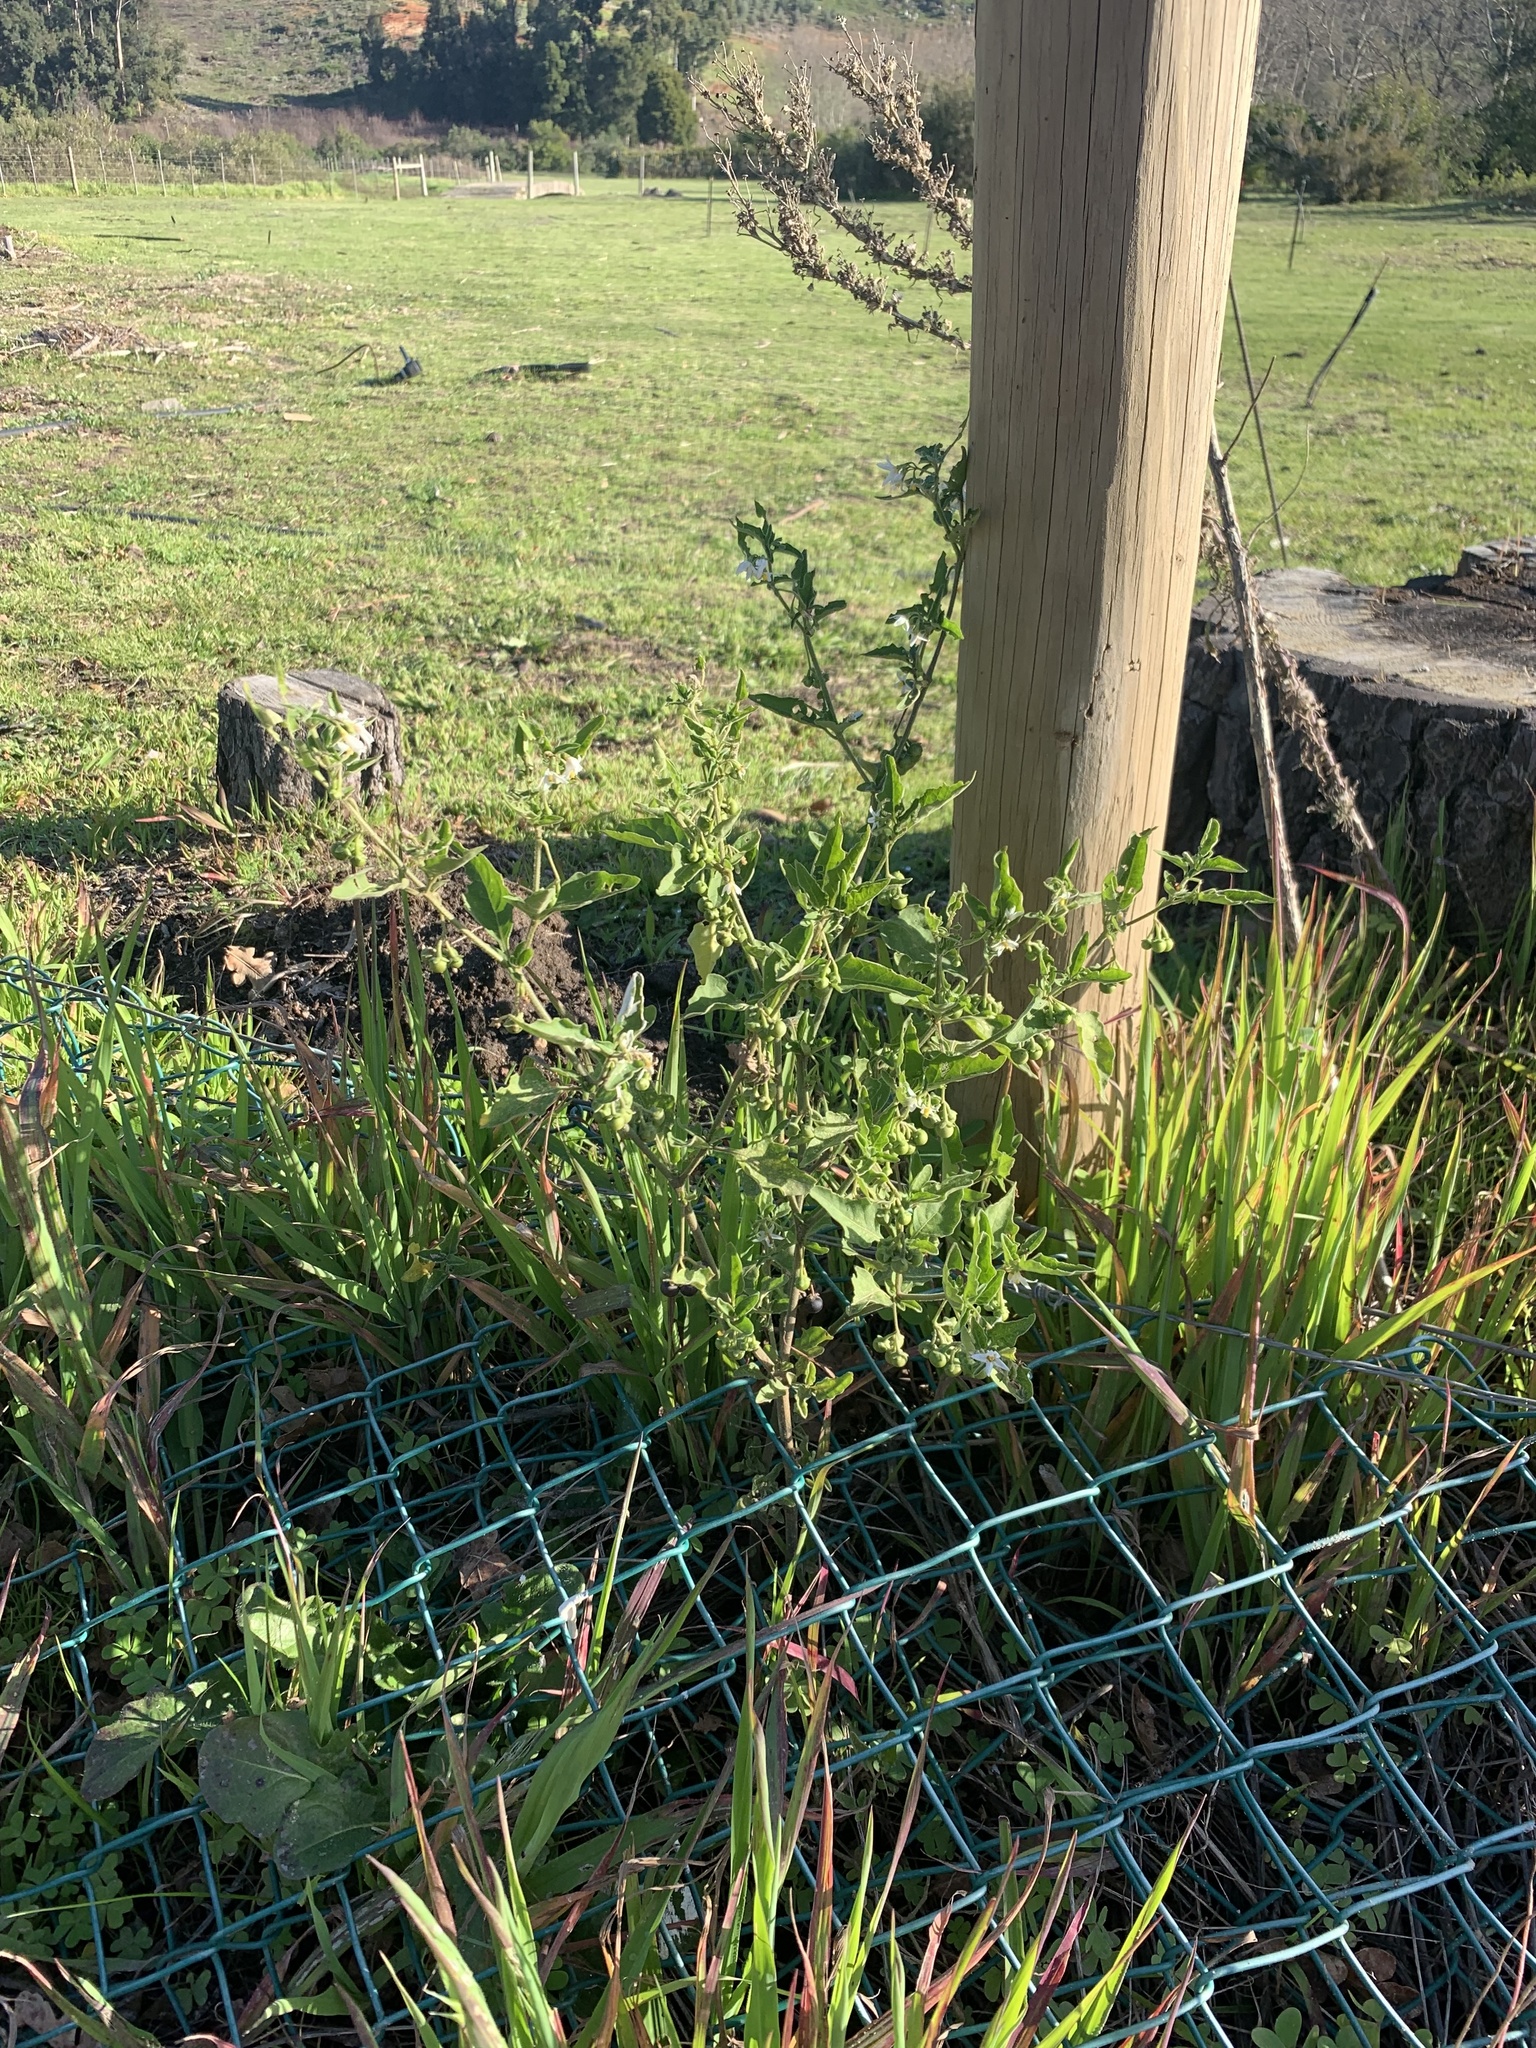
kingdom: Plantae
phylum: Tracheophyta
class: Magnoliopsida
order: Solanales
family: Solanaceae
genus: Solanum
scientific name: Solanum chenopodioides
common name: Tall nightshade
